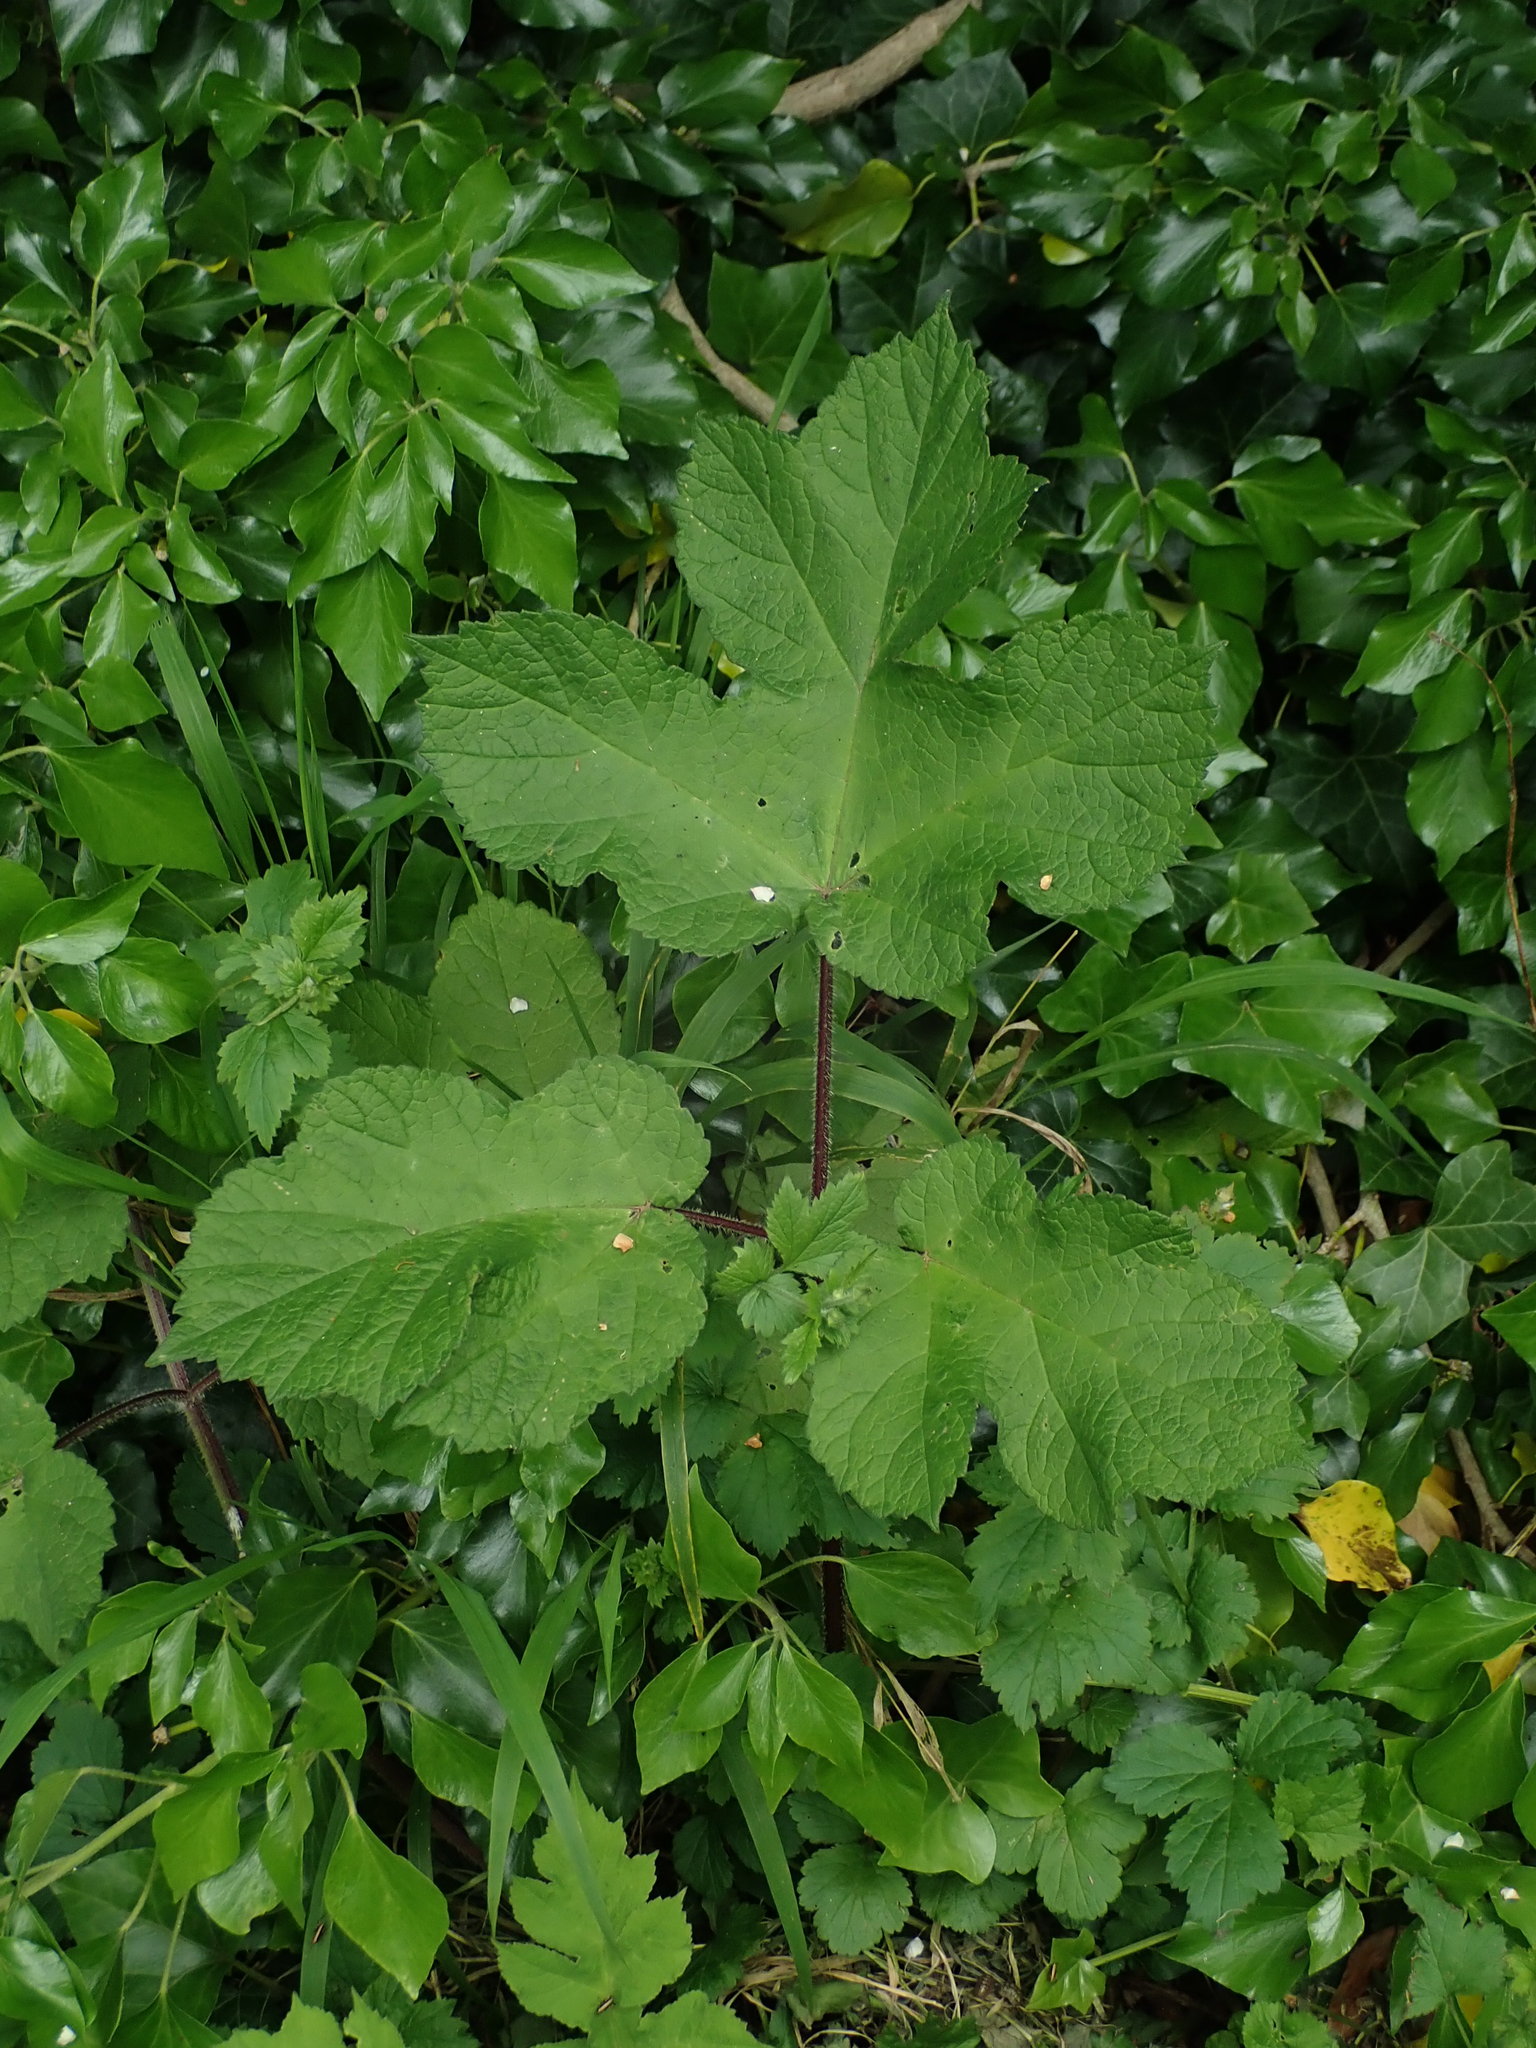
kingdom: Plantae
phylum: Tracheophyta
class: Magnoliopsida
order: Apiales
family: Apiaceae
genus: Heracleum
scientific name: Heracleum sphondylium
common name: Hogweed
